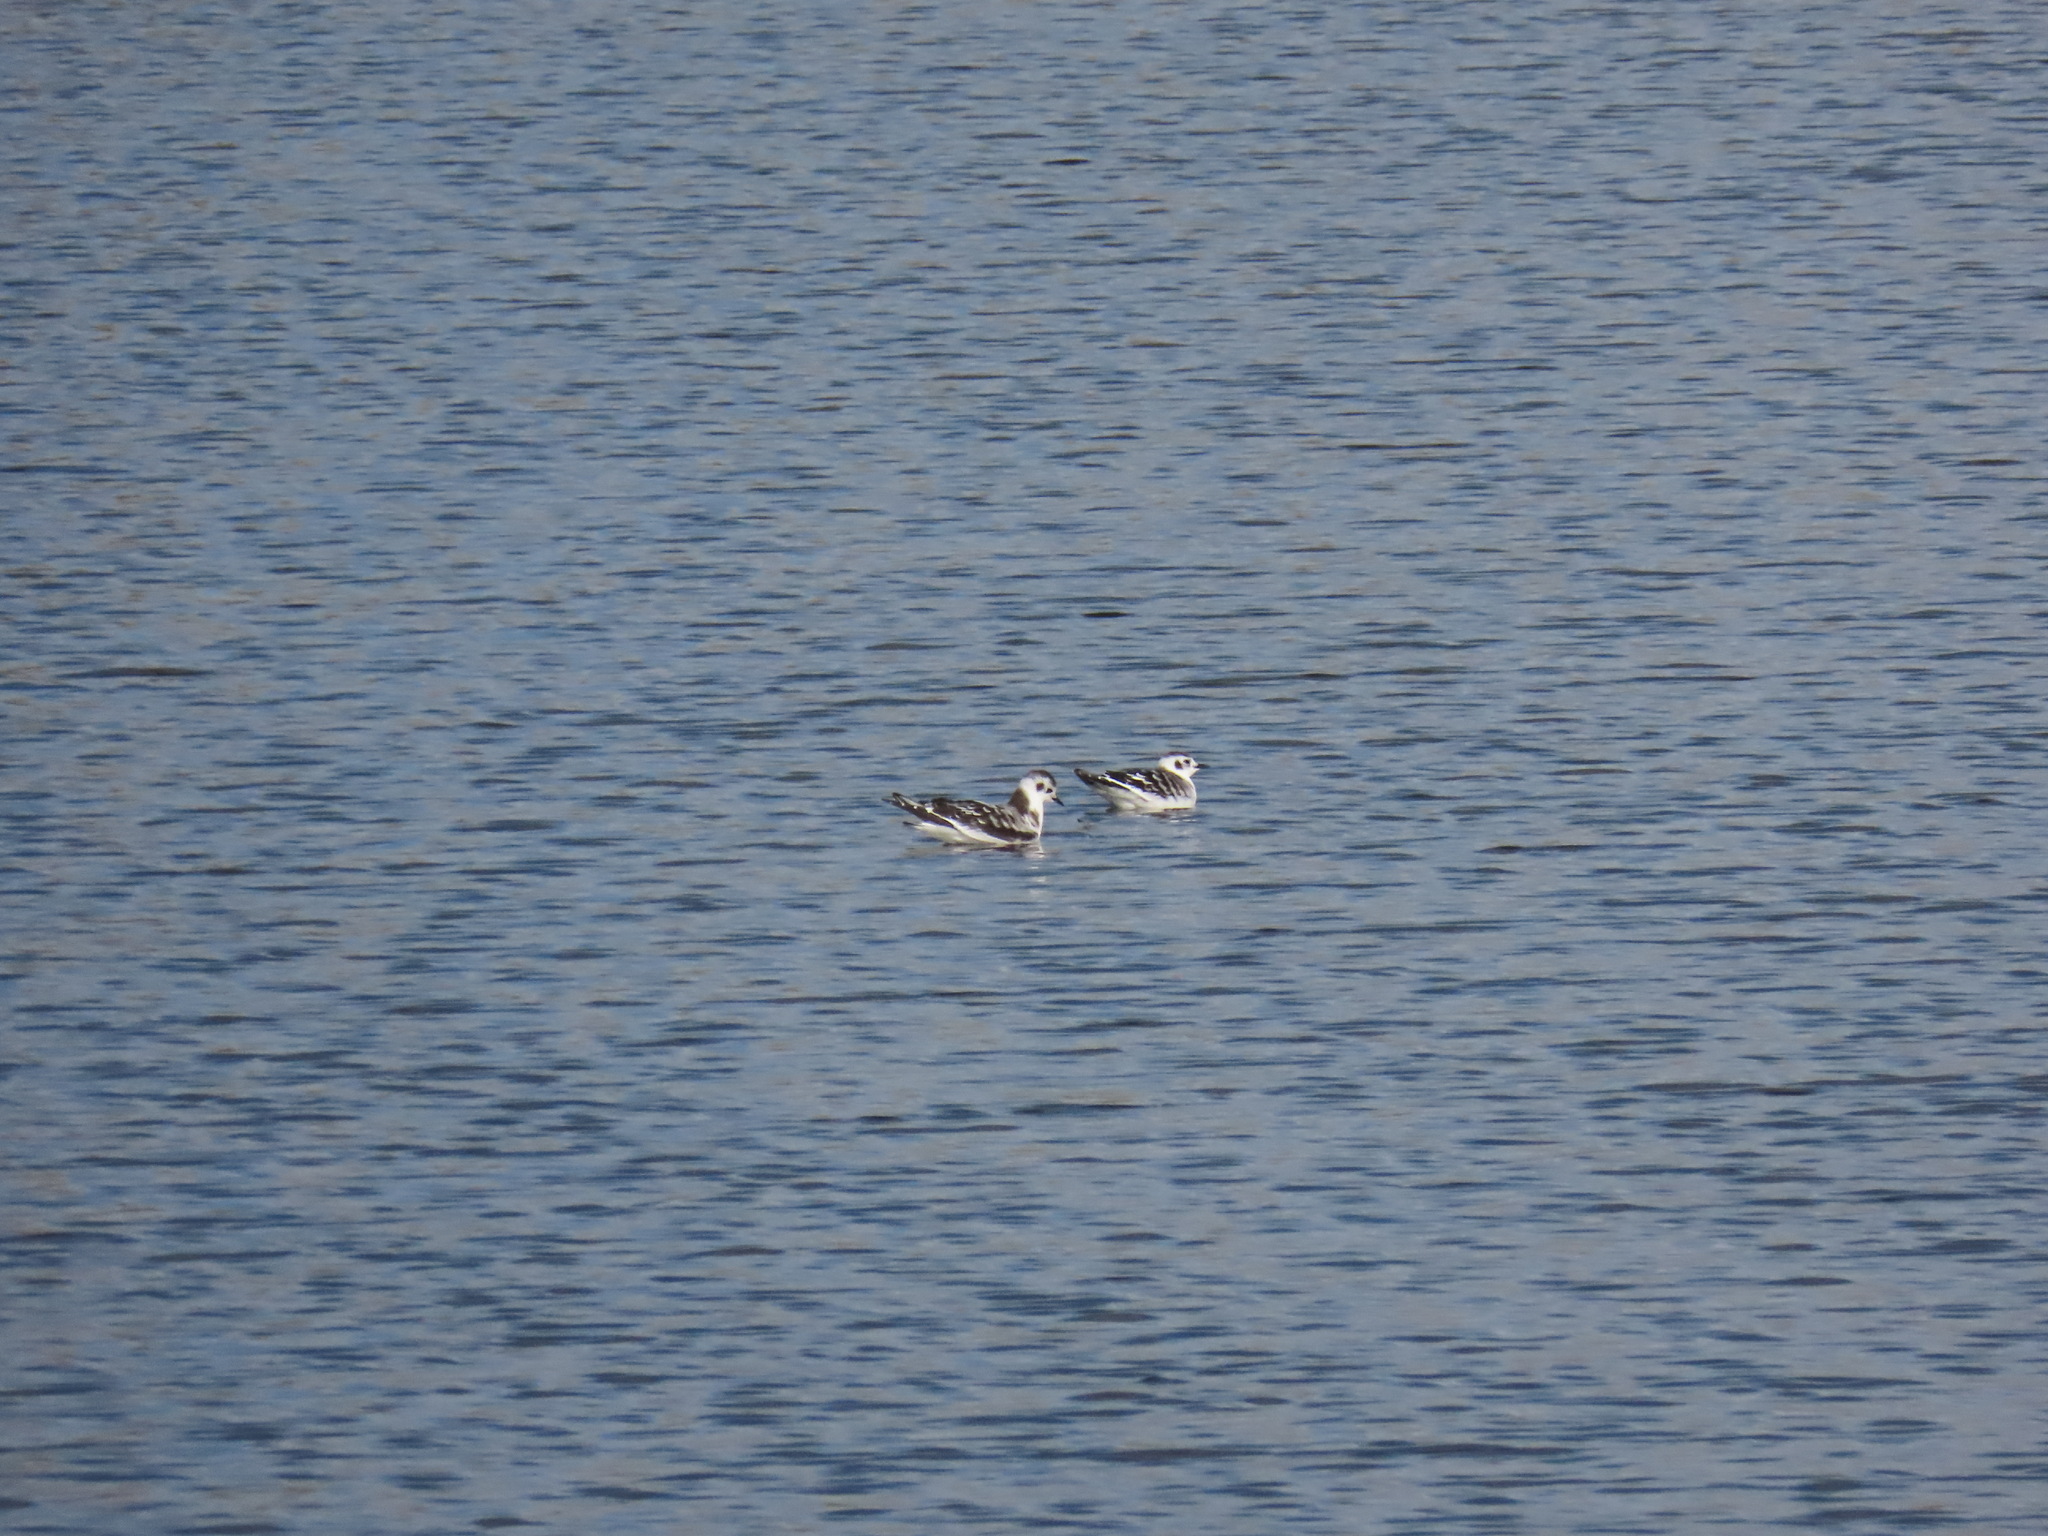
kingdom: Animalia
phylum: Chordata
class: Aves
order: Charadriiformes
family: Laridae
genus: Hydrocoloeus
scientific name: Hydrocoloeus minutus
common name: Little gull
